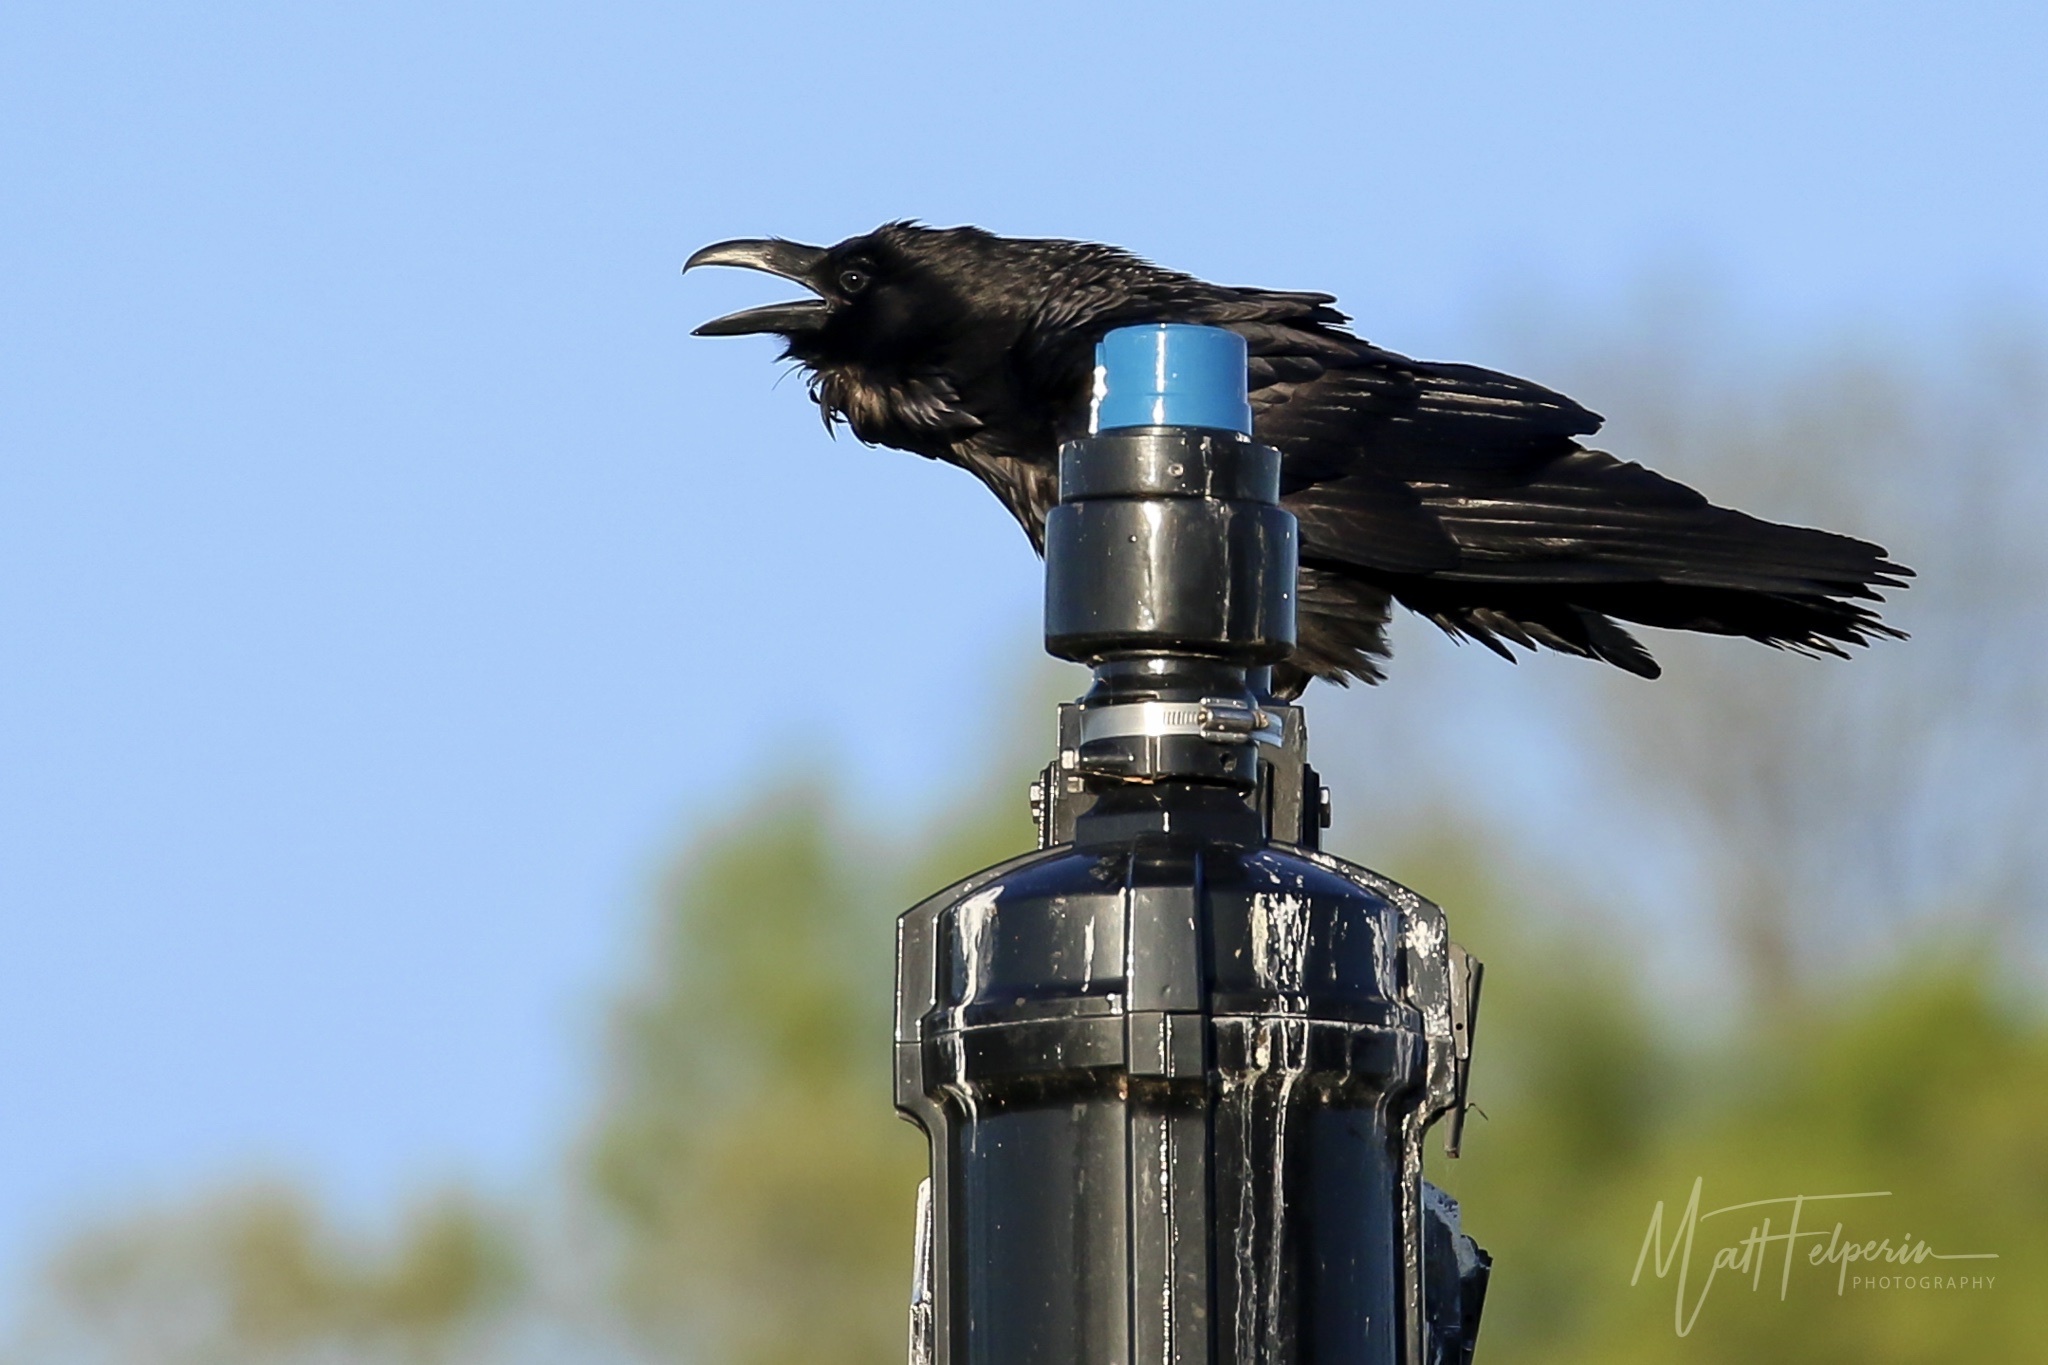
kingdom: Animalia
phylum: Chordata
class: Aves
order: Passeriformes
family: Corvidae
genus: Corvus
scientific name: Corvus corax
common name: Common raven
